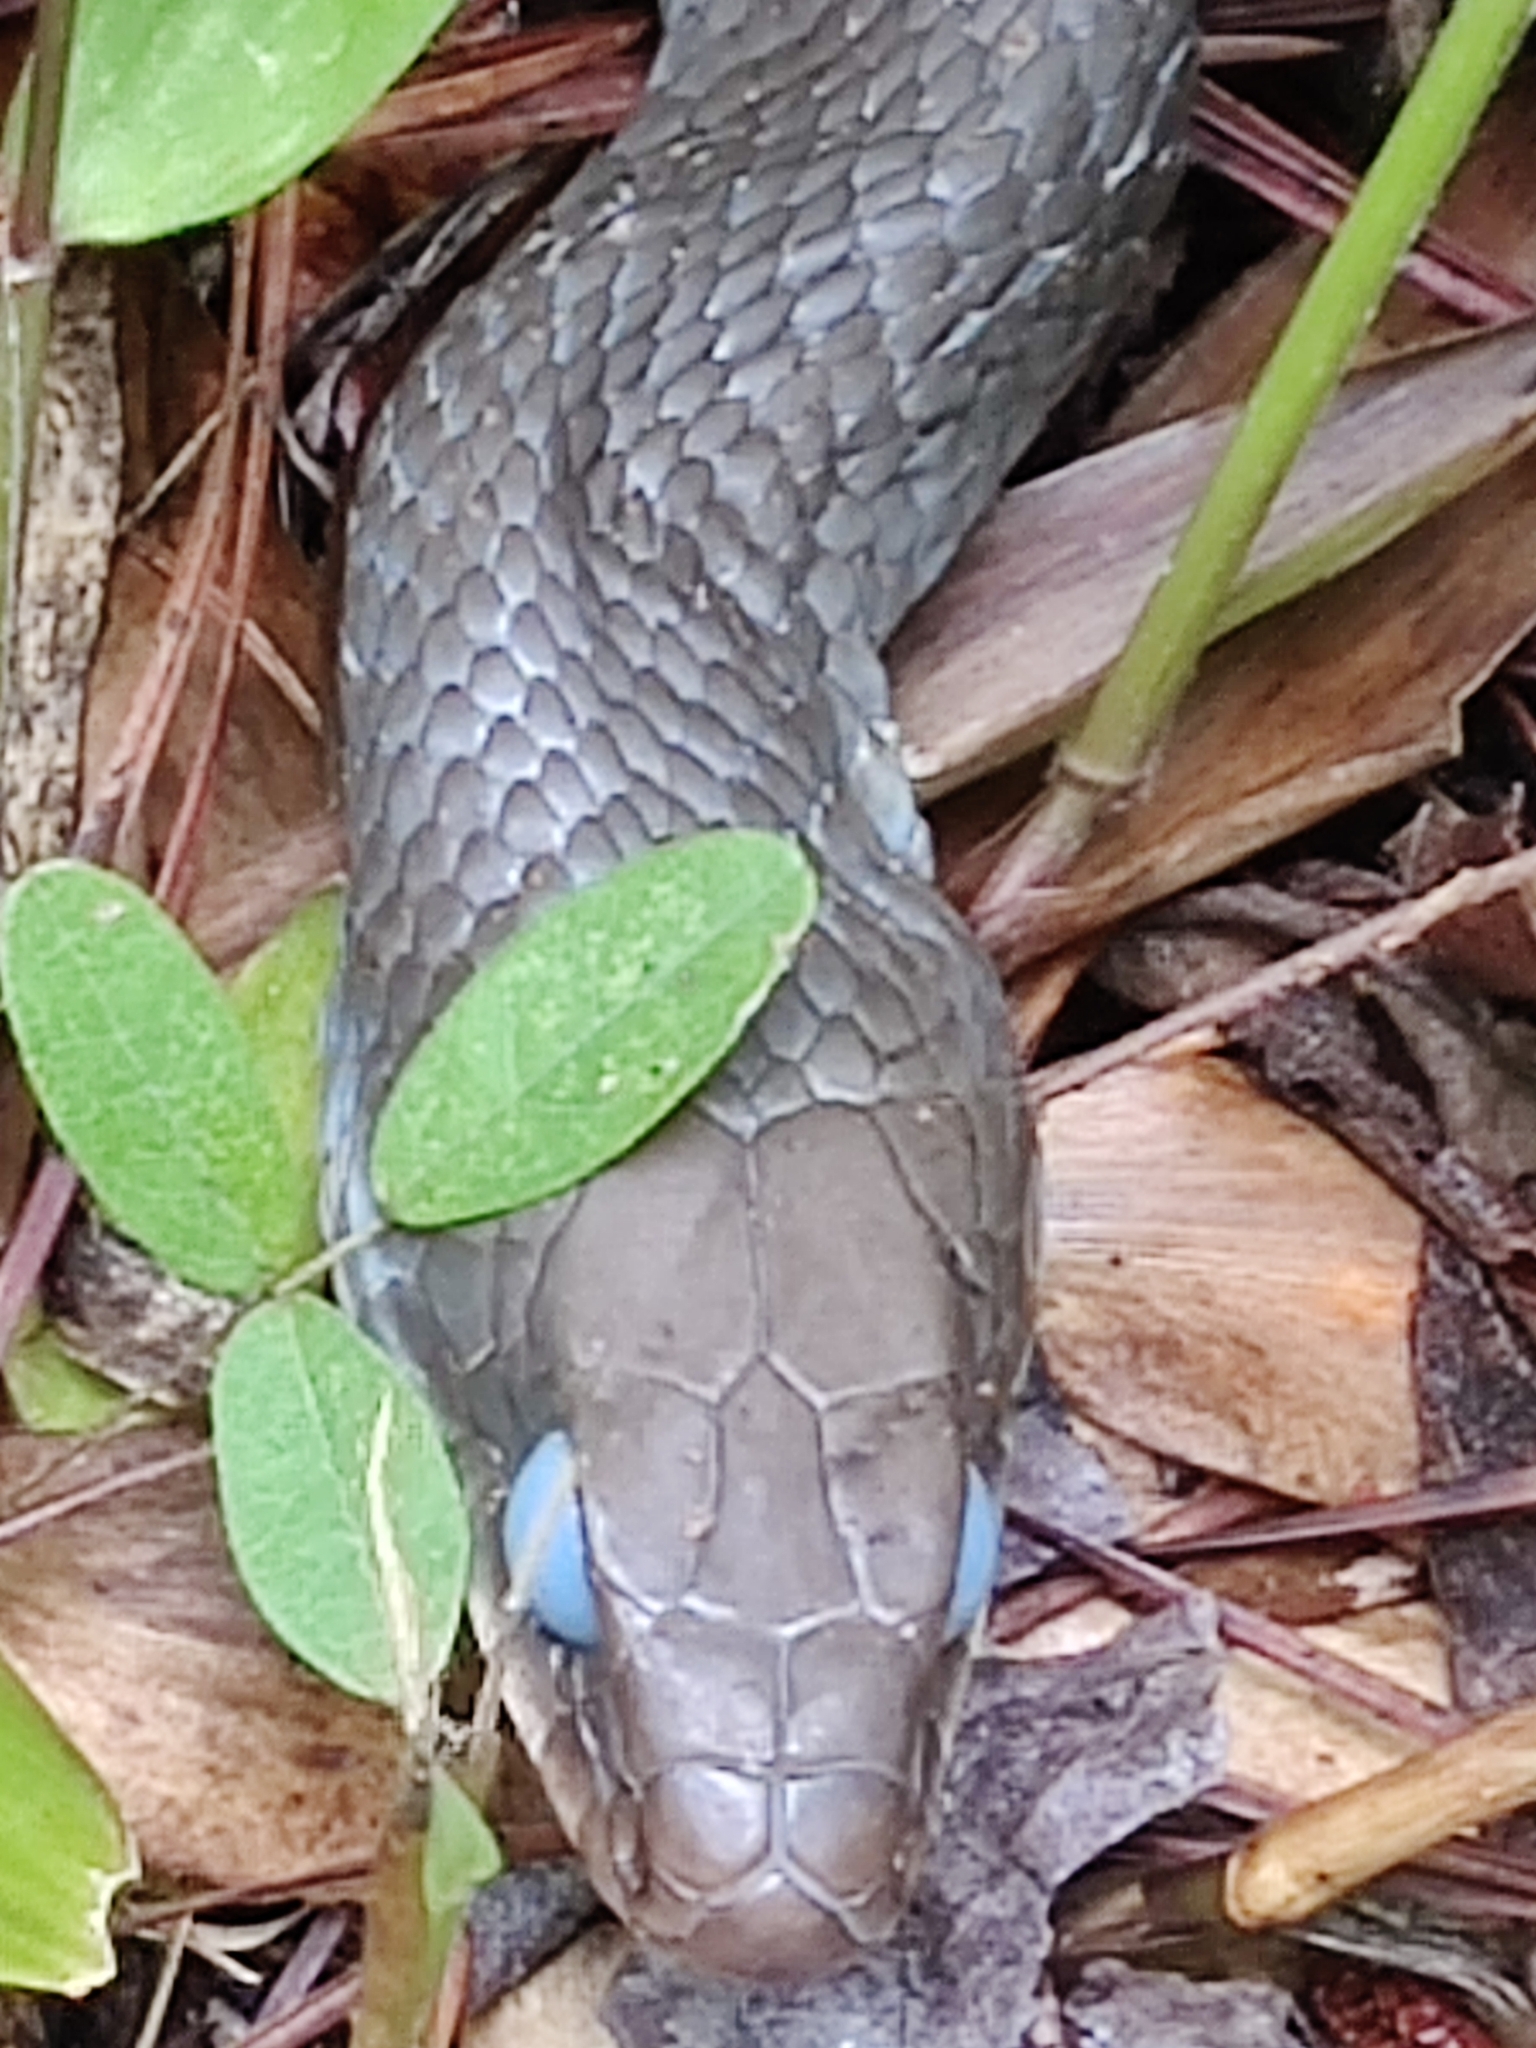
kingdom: Animalia
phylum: Chordata
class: Squamata
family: Colubridae
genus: Coluber
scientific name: Coluber constrictor
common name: Eastern racer
